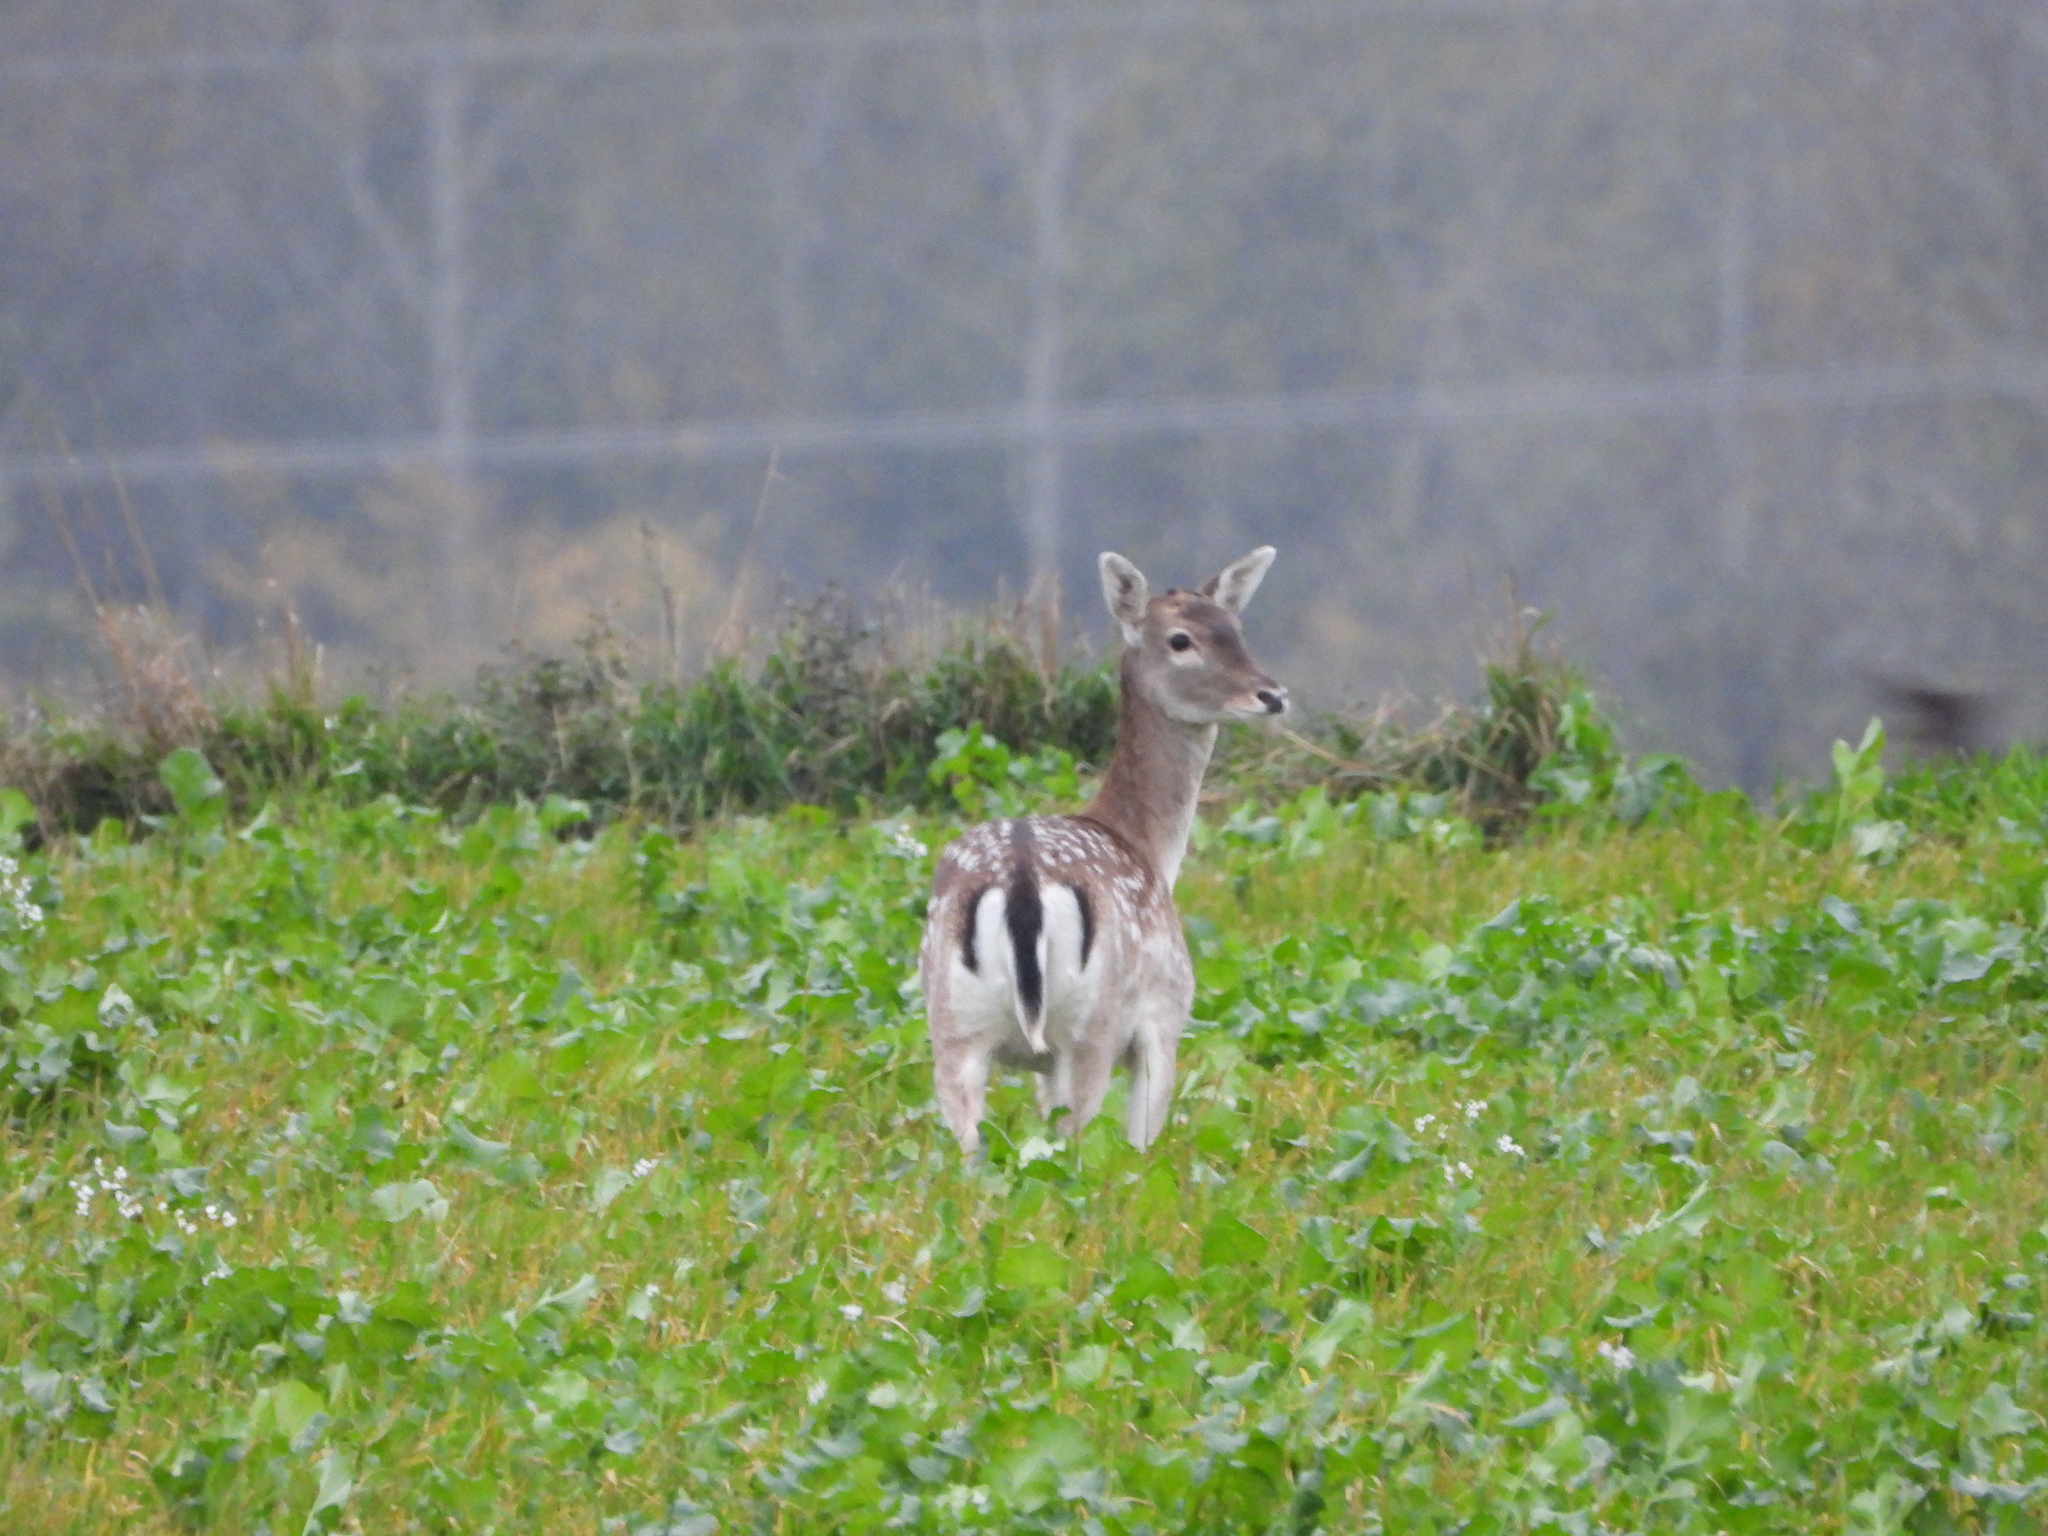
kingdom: Animalia
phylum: Chordata
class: Mammalia
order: Artiodactyla
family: Cervidae
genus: Dama
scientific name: Dama dama
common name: Fallow deer
